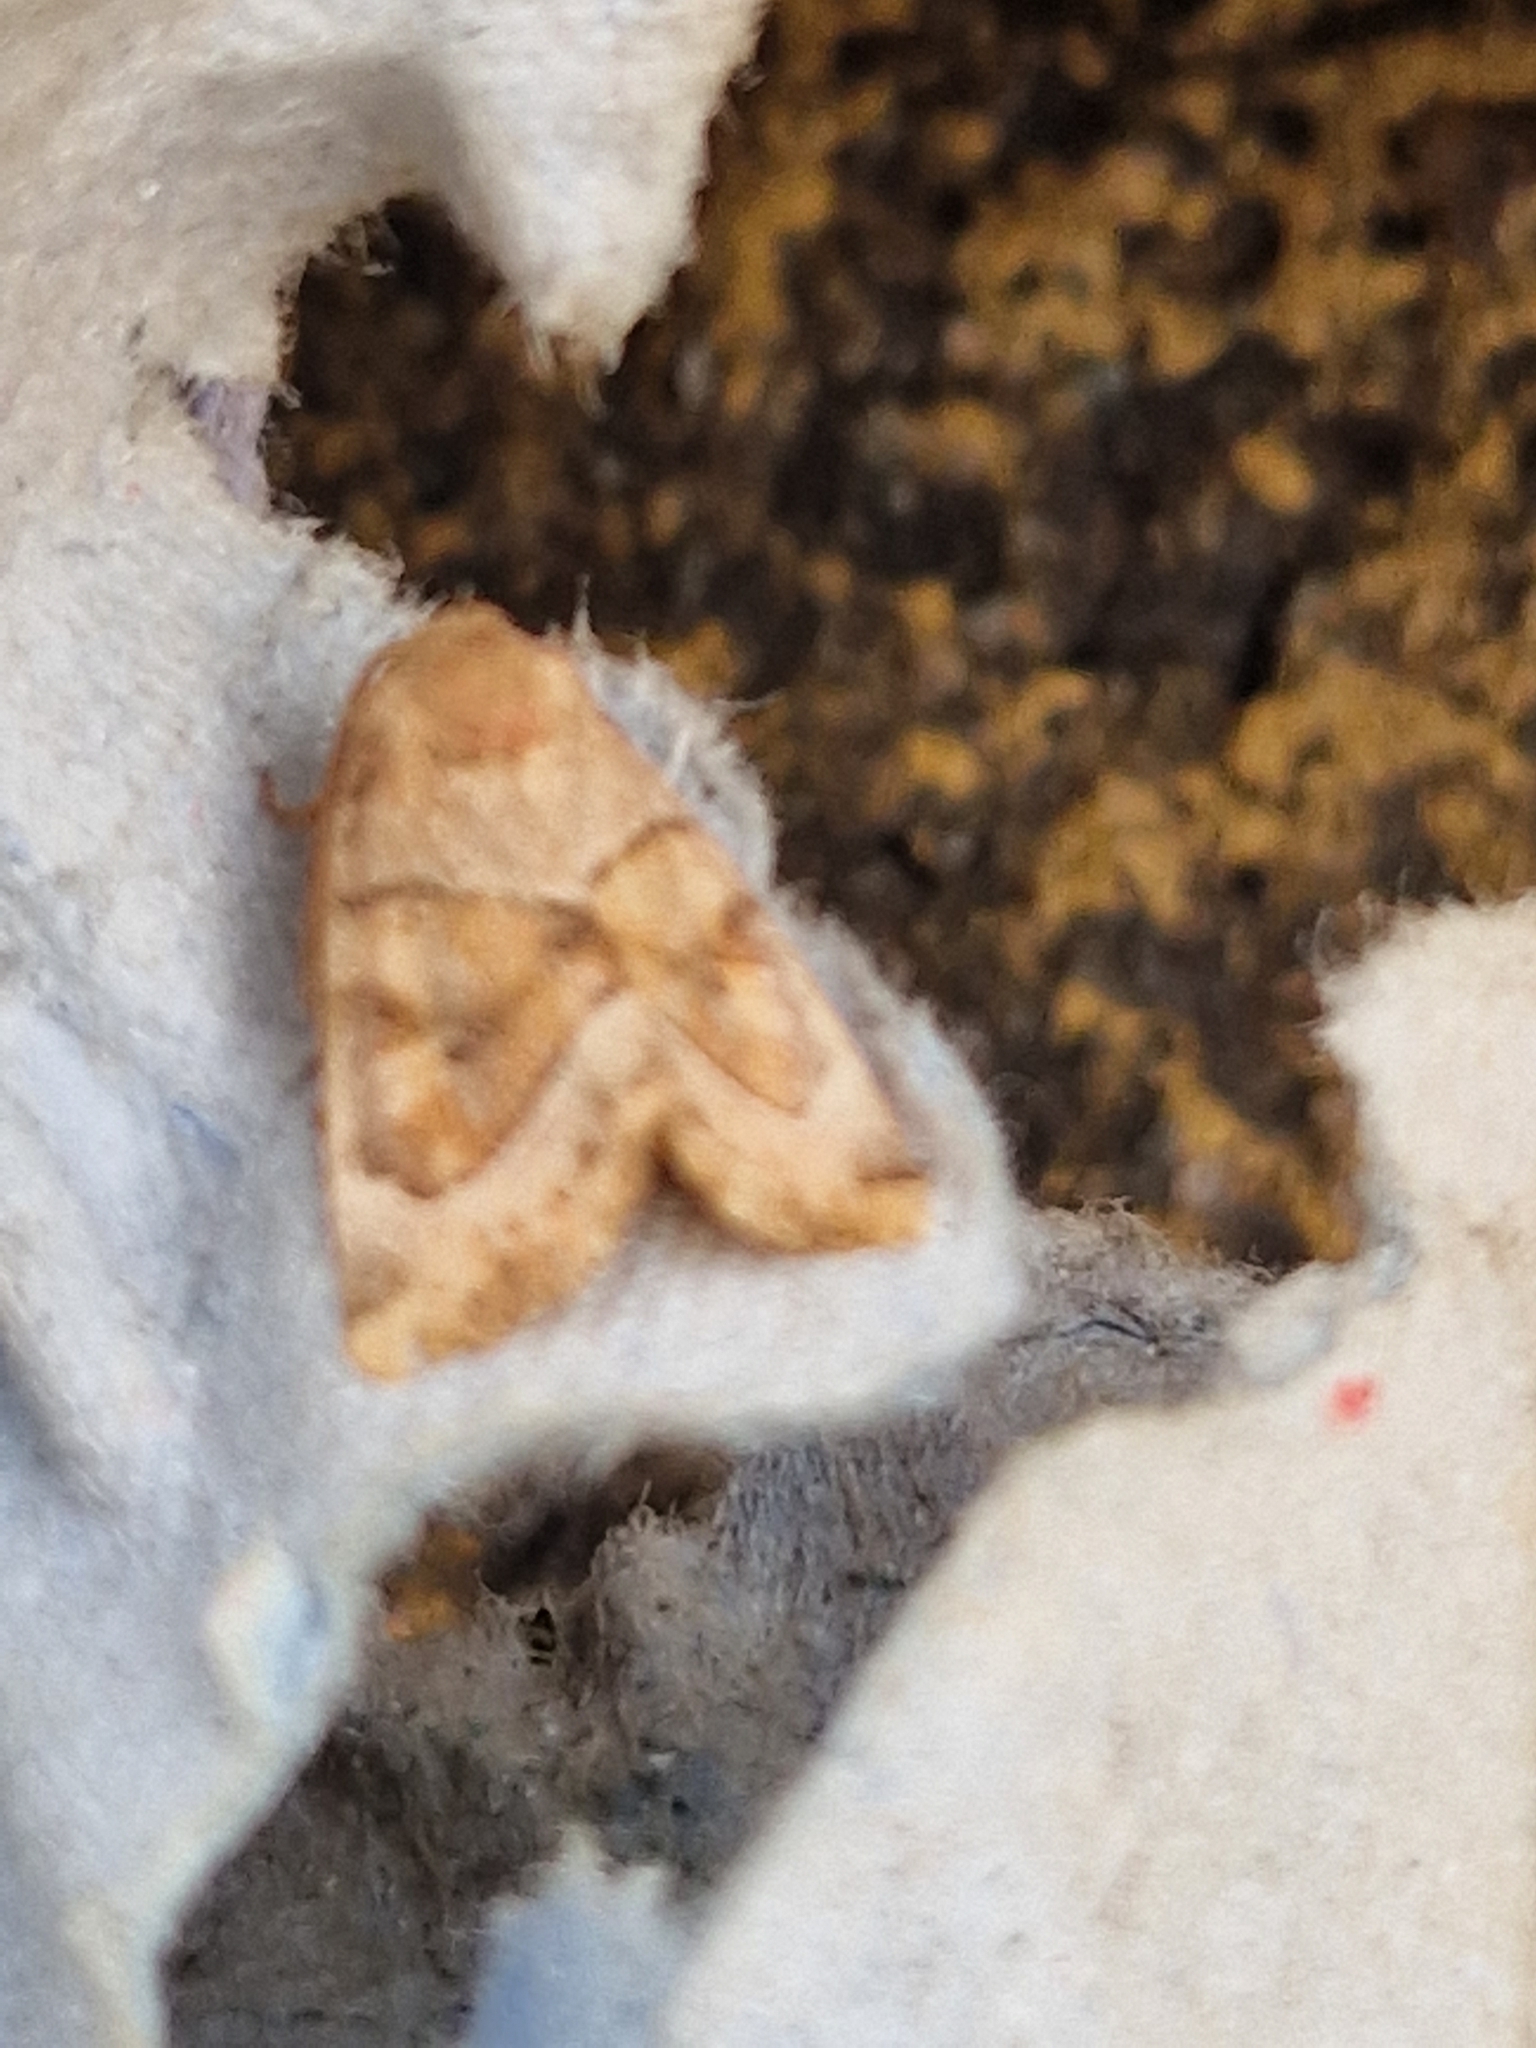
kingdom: Animalia
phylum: Arthropoda
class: Insecta
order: Lepidoptera
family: Noctuidae
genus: Cosmia
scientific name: Cosmia trapezina
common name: Dun-bar
